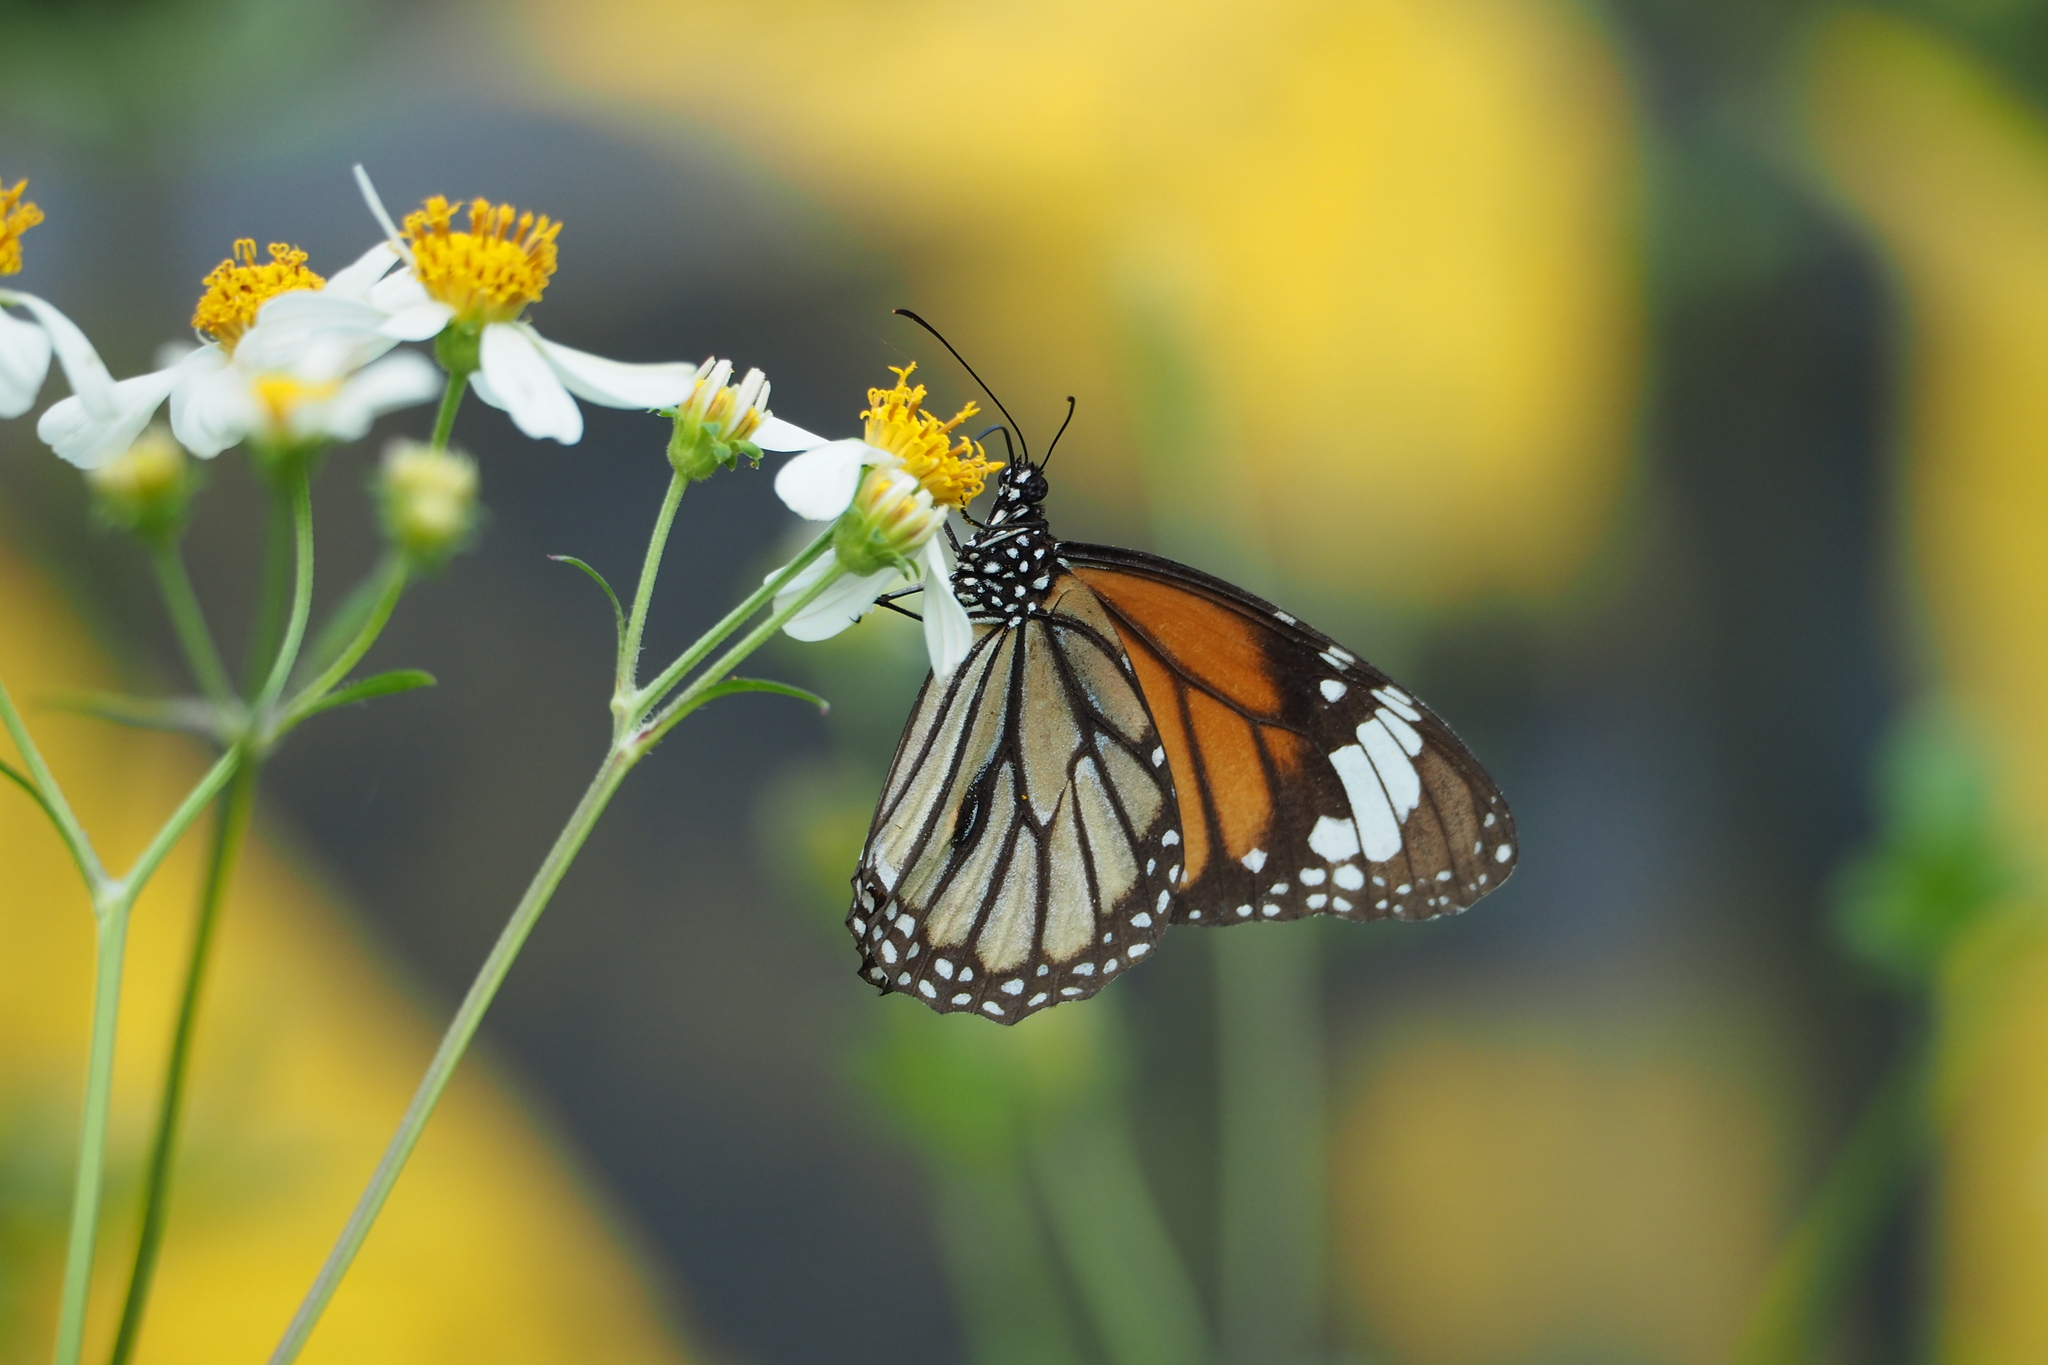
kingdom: Animalia
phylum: Arthropoda
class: Insecta
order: Lepidoptera
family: Nymphalidae
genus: Danaus
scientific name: Danaus genutia
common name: Common tiger butterfly
